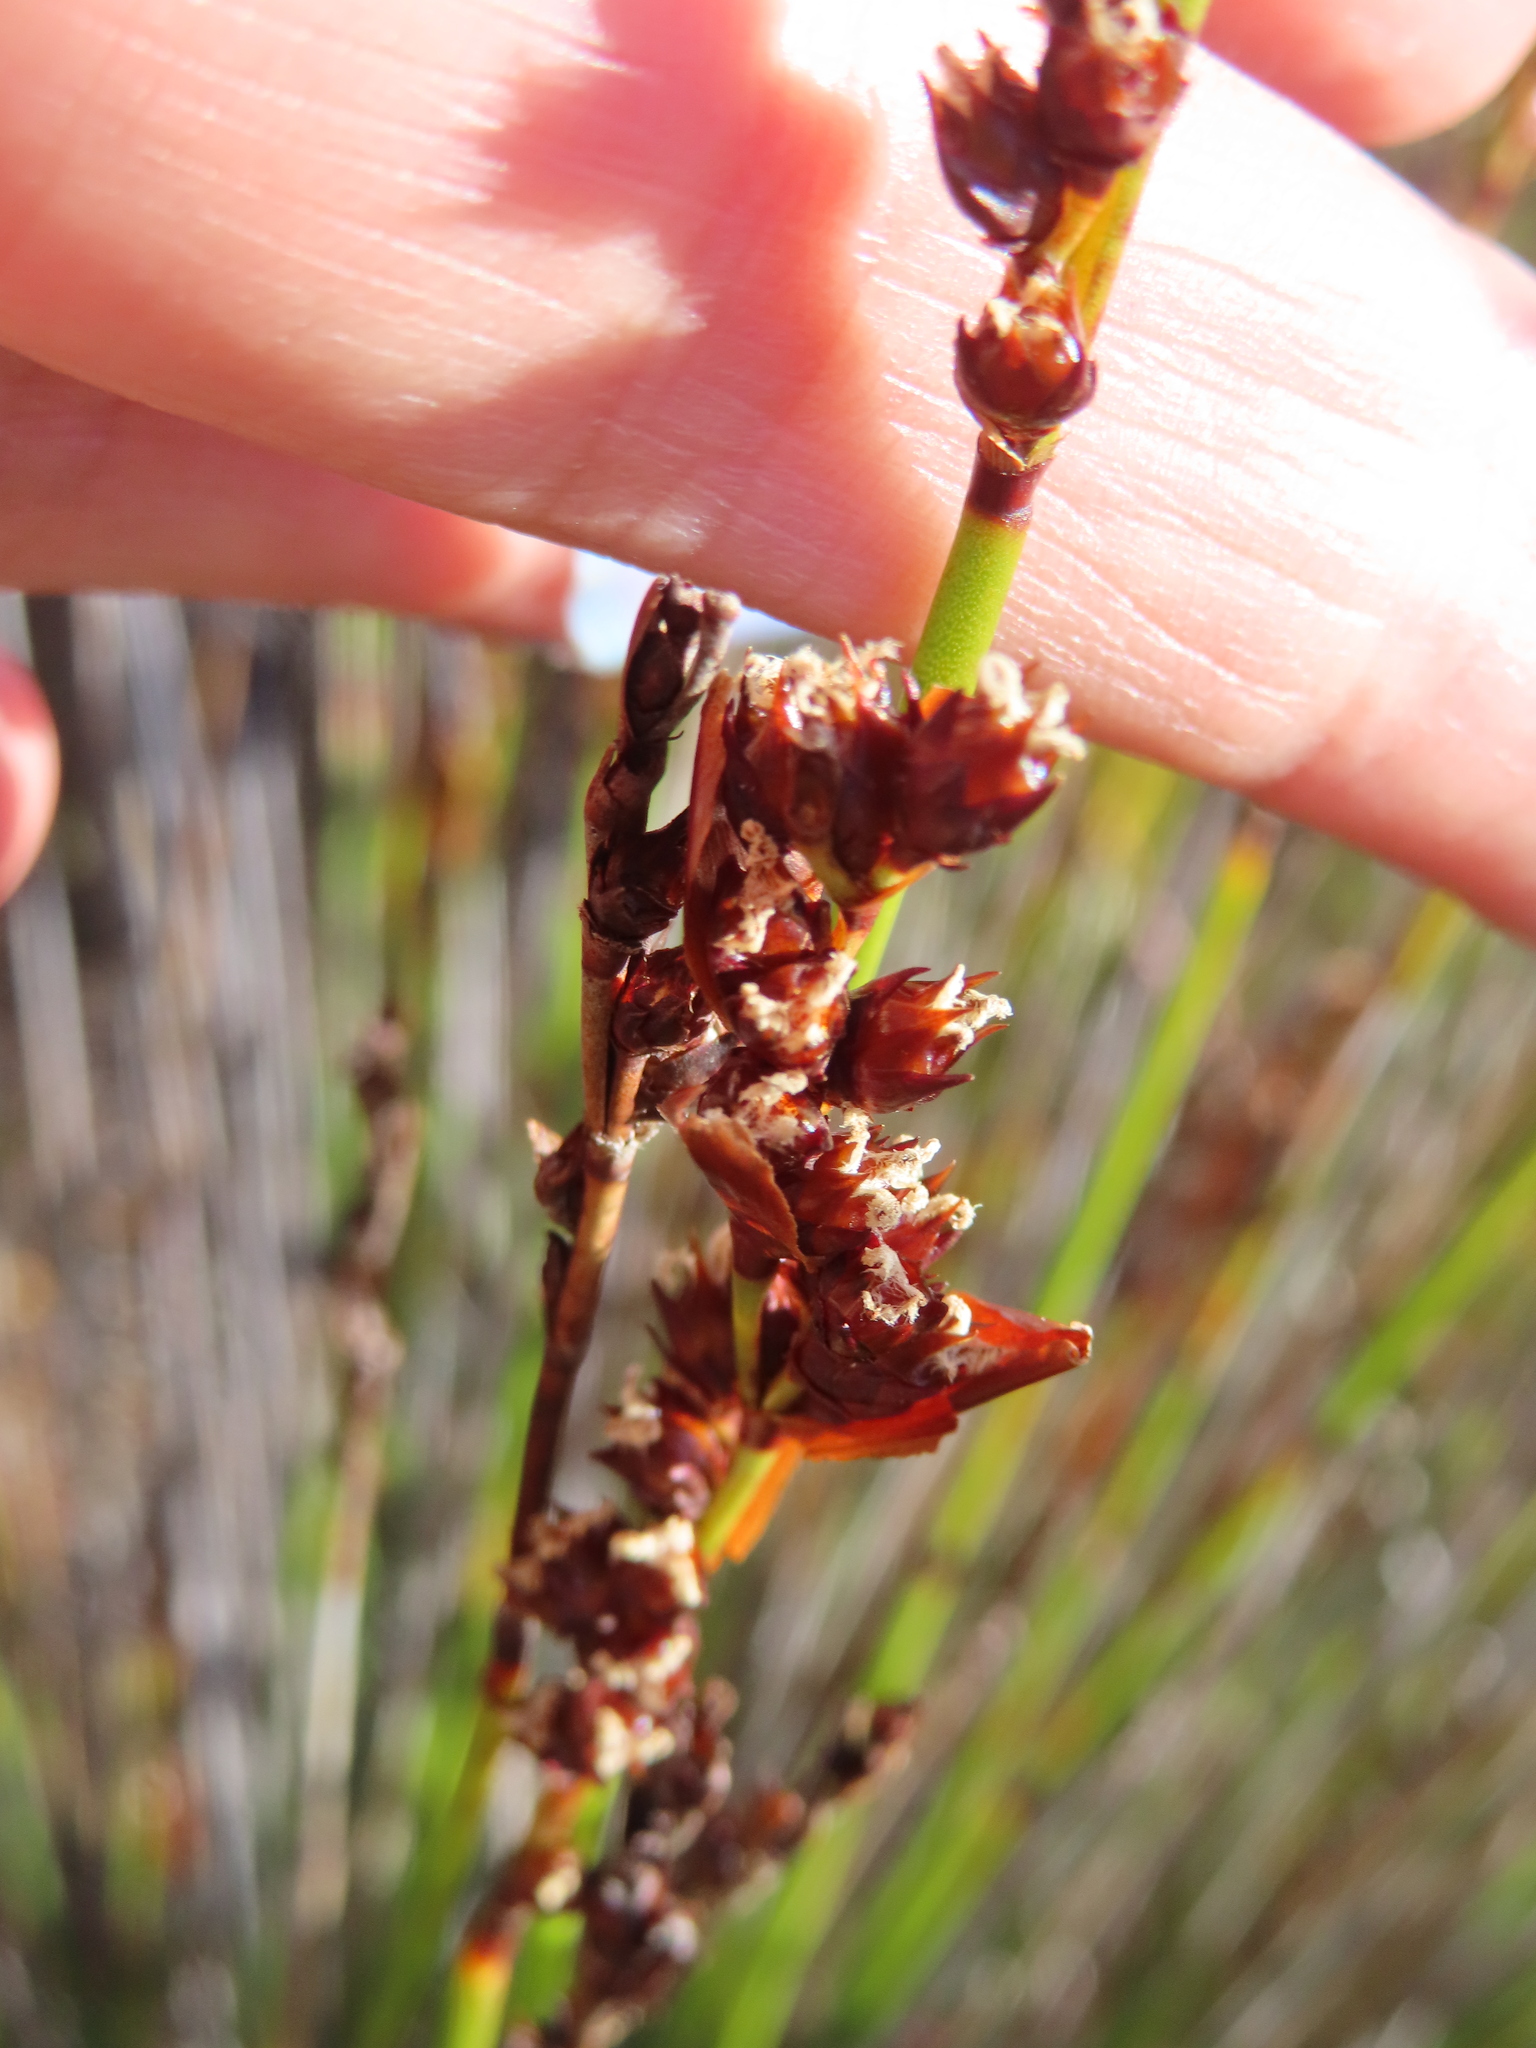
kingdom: Plantae
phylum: Tracheophyta
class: Liliopsida
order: Poales
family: Restionaceae
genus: Elegia
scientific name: Elegia ebracteata
